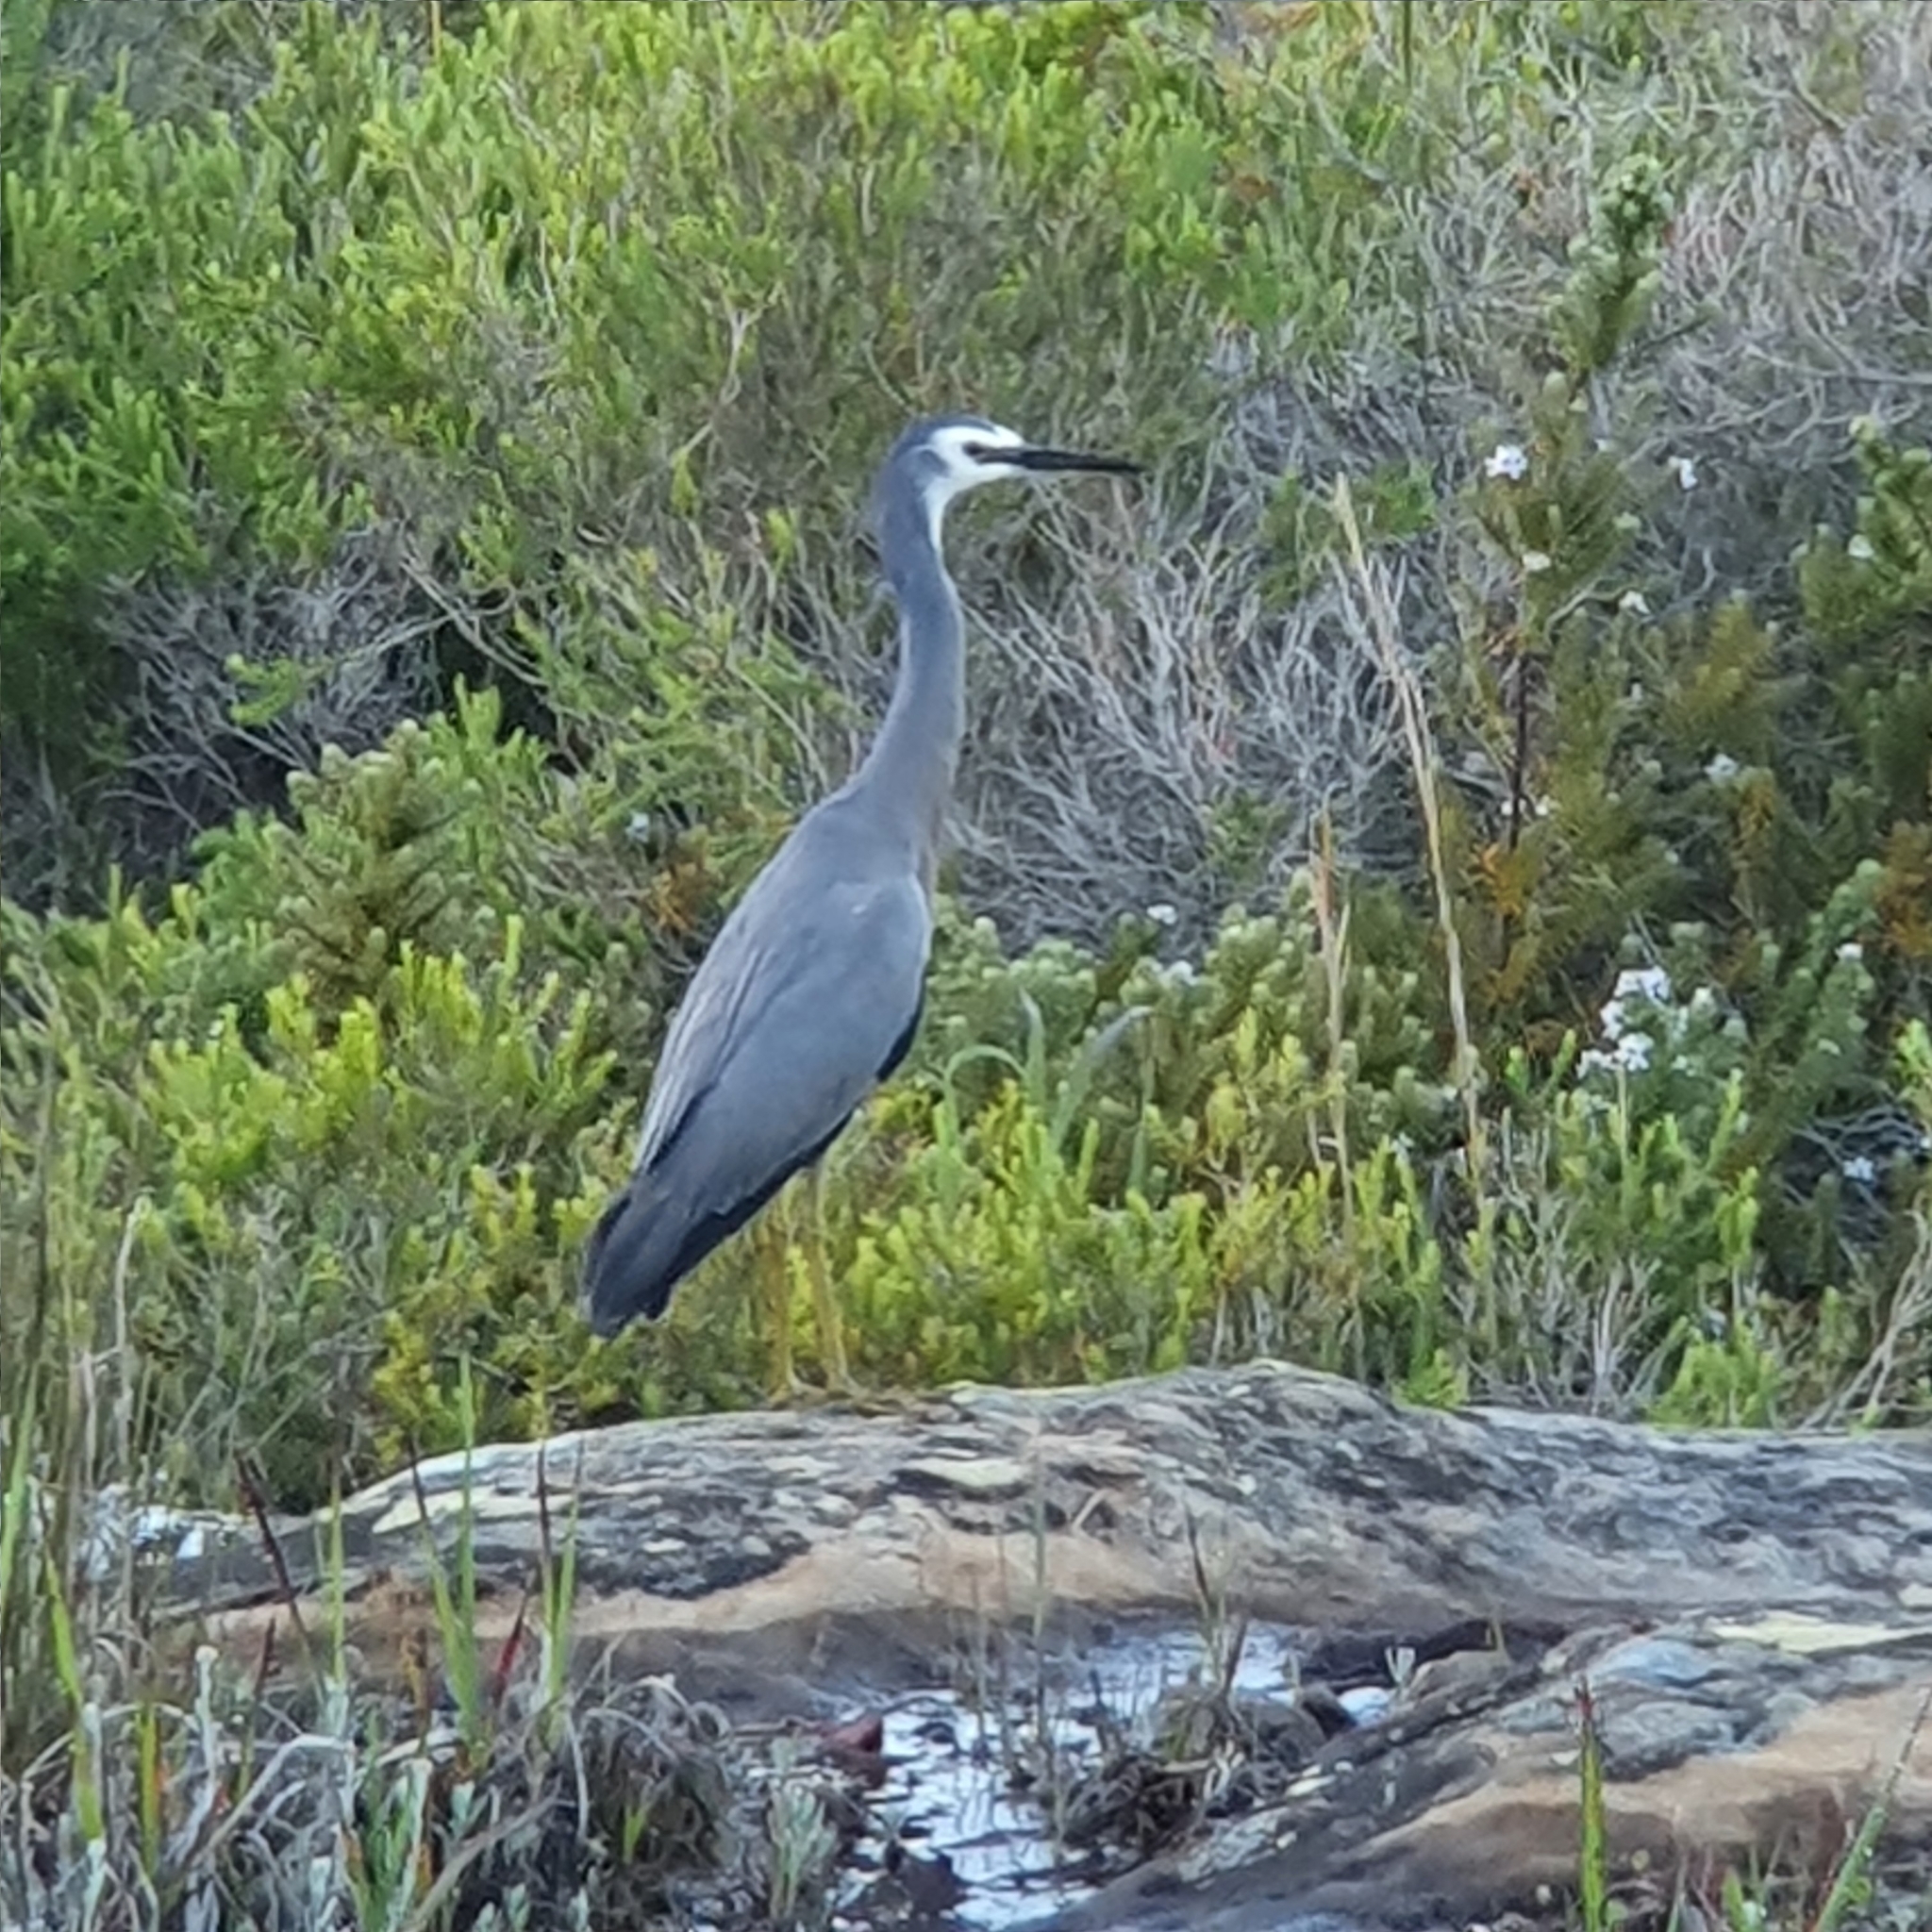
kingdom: Animalia
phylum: Chordata
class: Aves
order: Pelecaniformes
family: Ardeidae
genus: Egretta
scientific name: Egretta novaehollandiae
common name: White-faced heron
